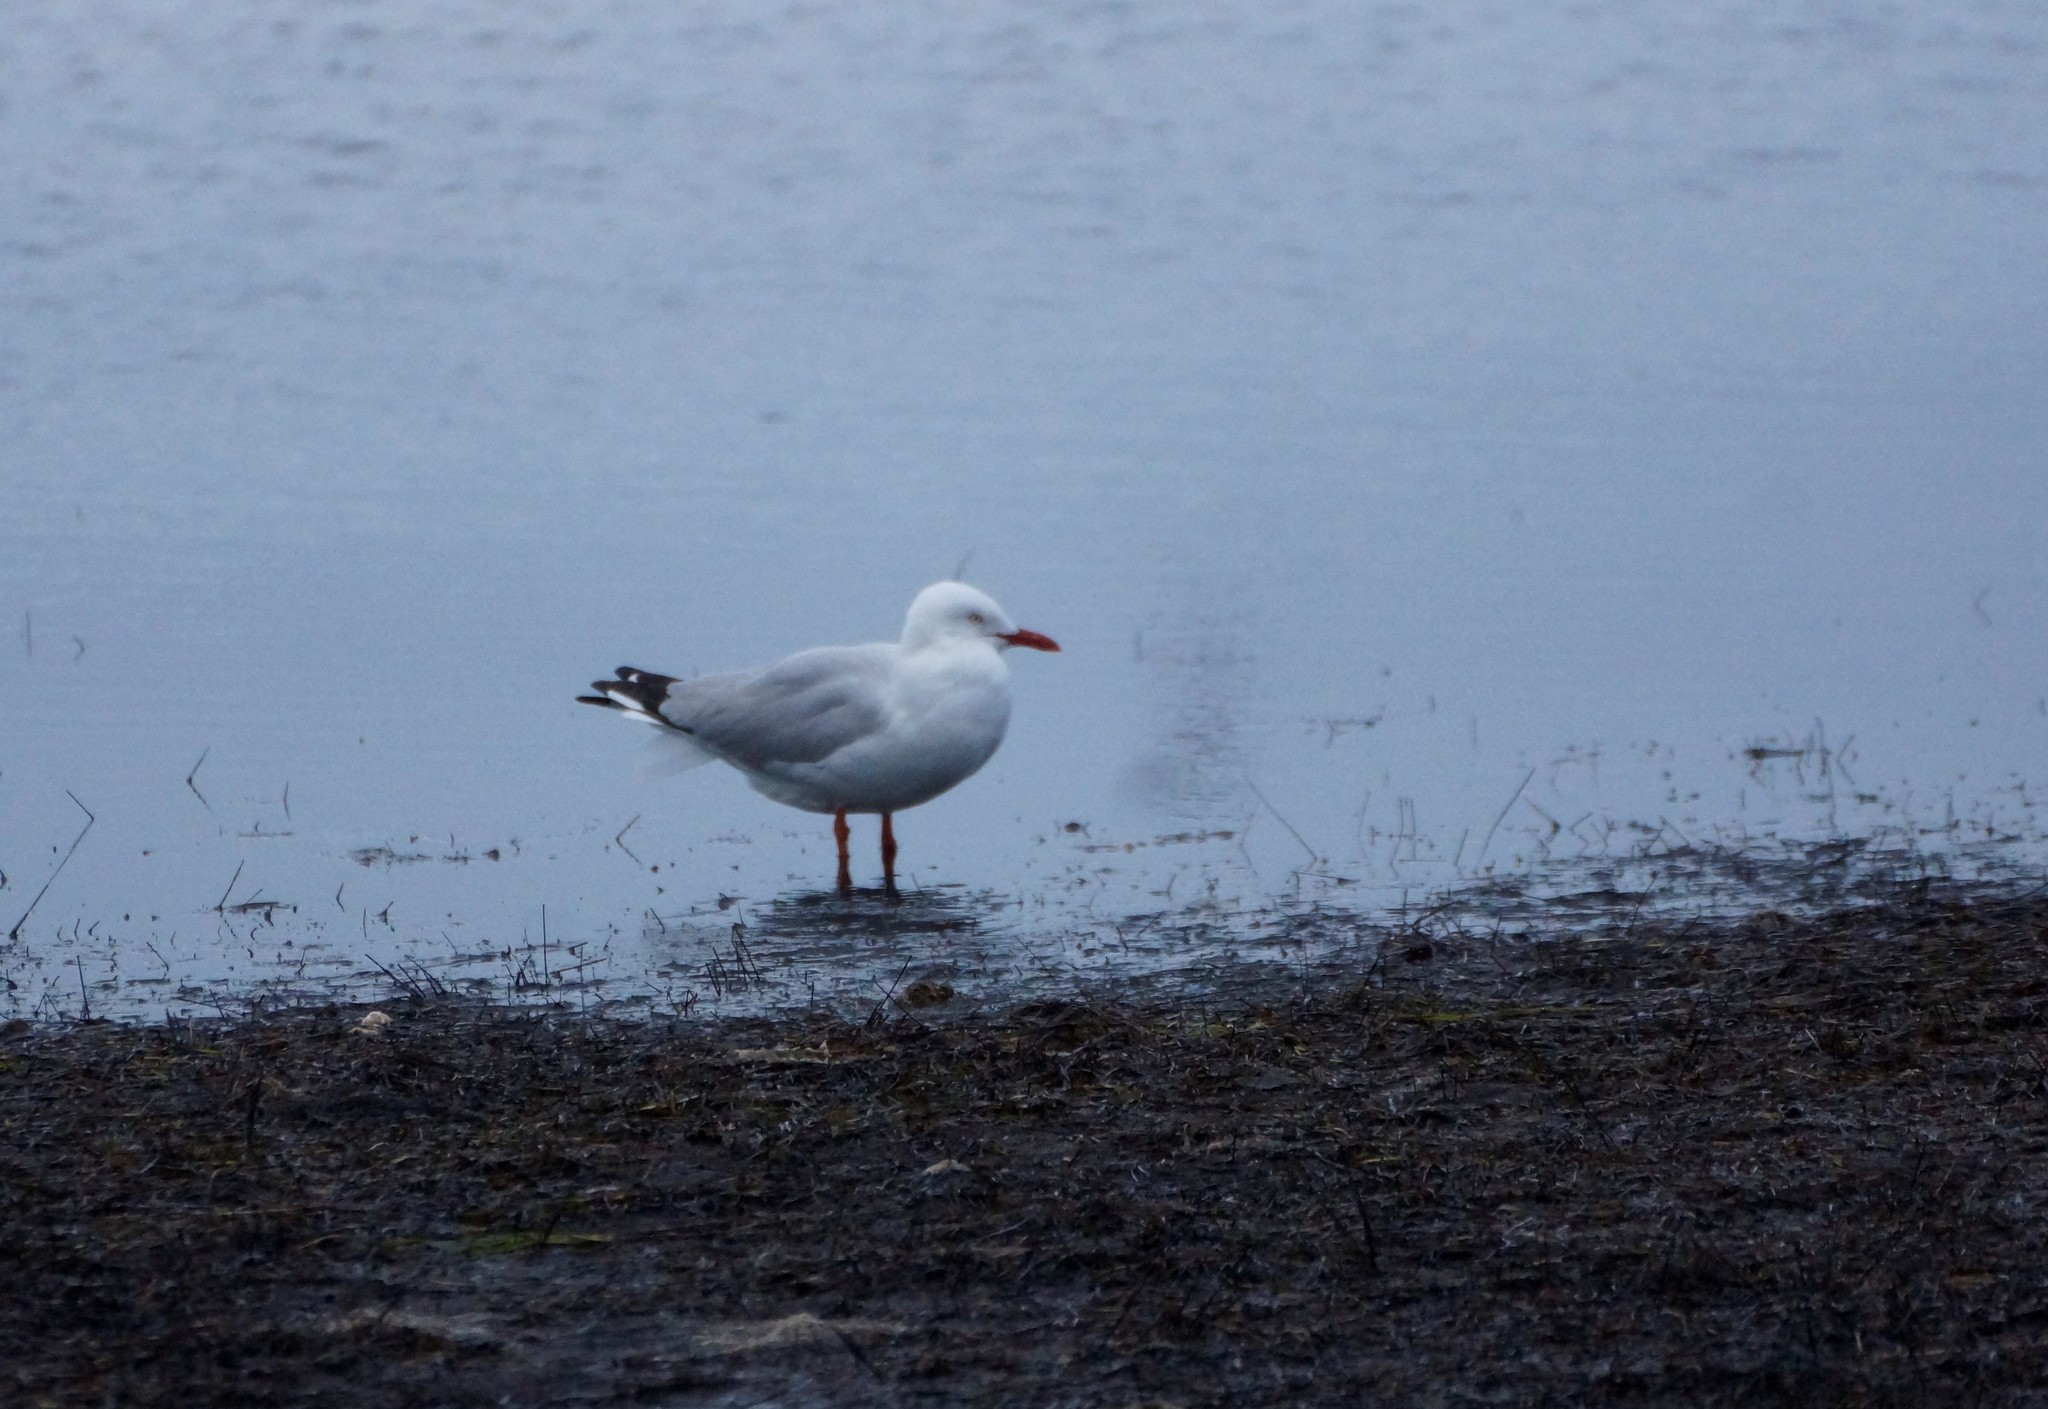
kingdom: Animalia
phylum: Chordata
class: Aves
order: Charadriiformes
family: Laridae
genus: Chroicocephalus
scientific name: Chroicocephalus novaehollandiae
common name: Silver gull
